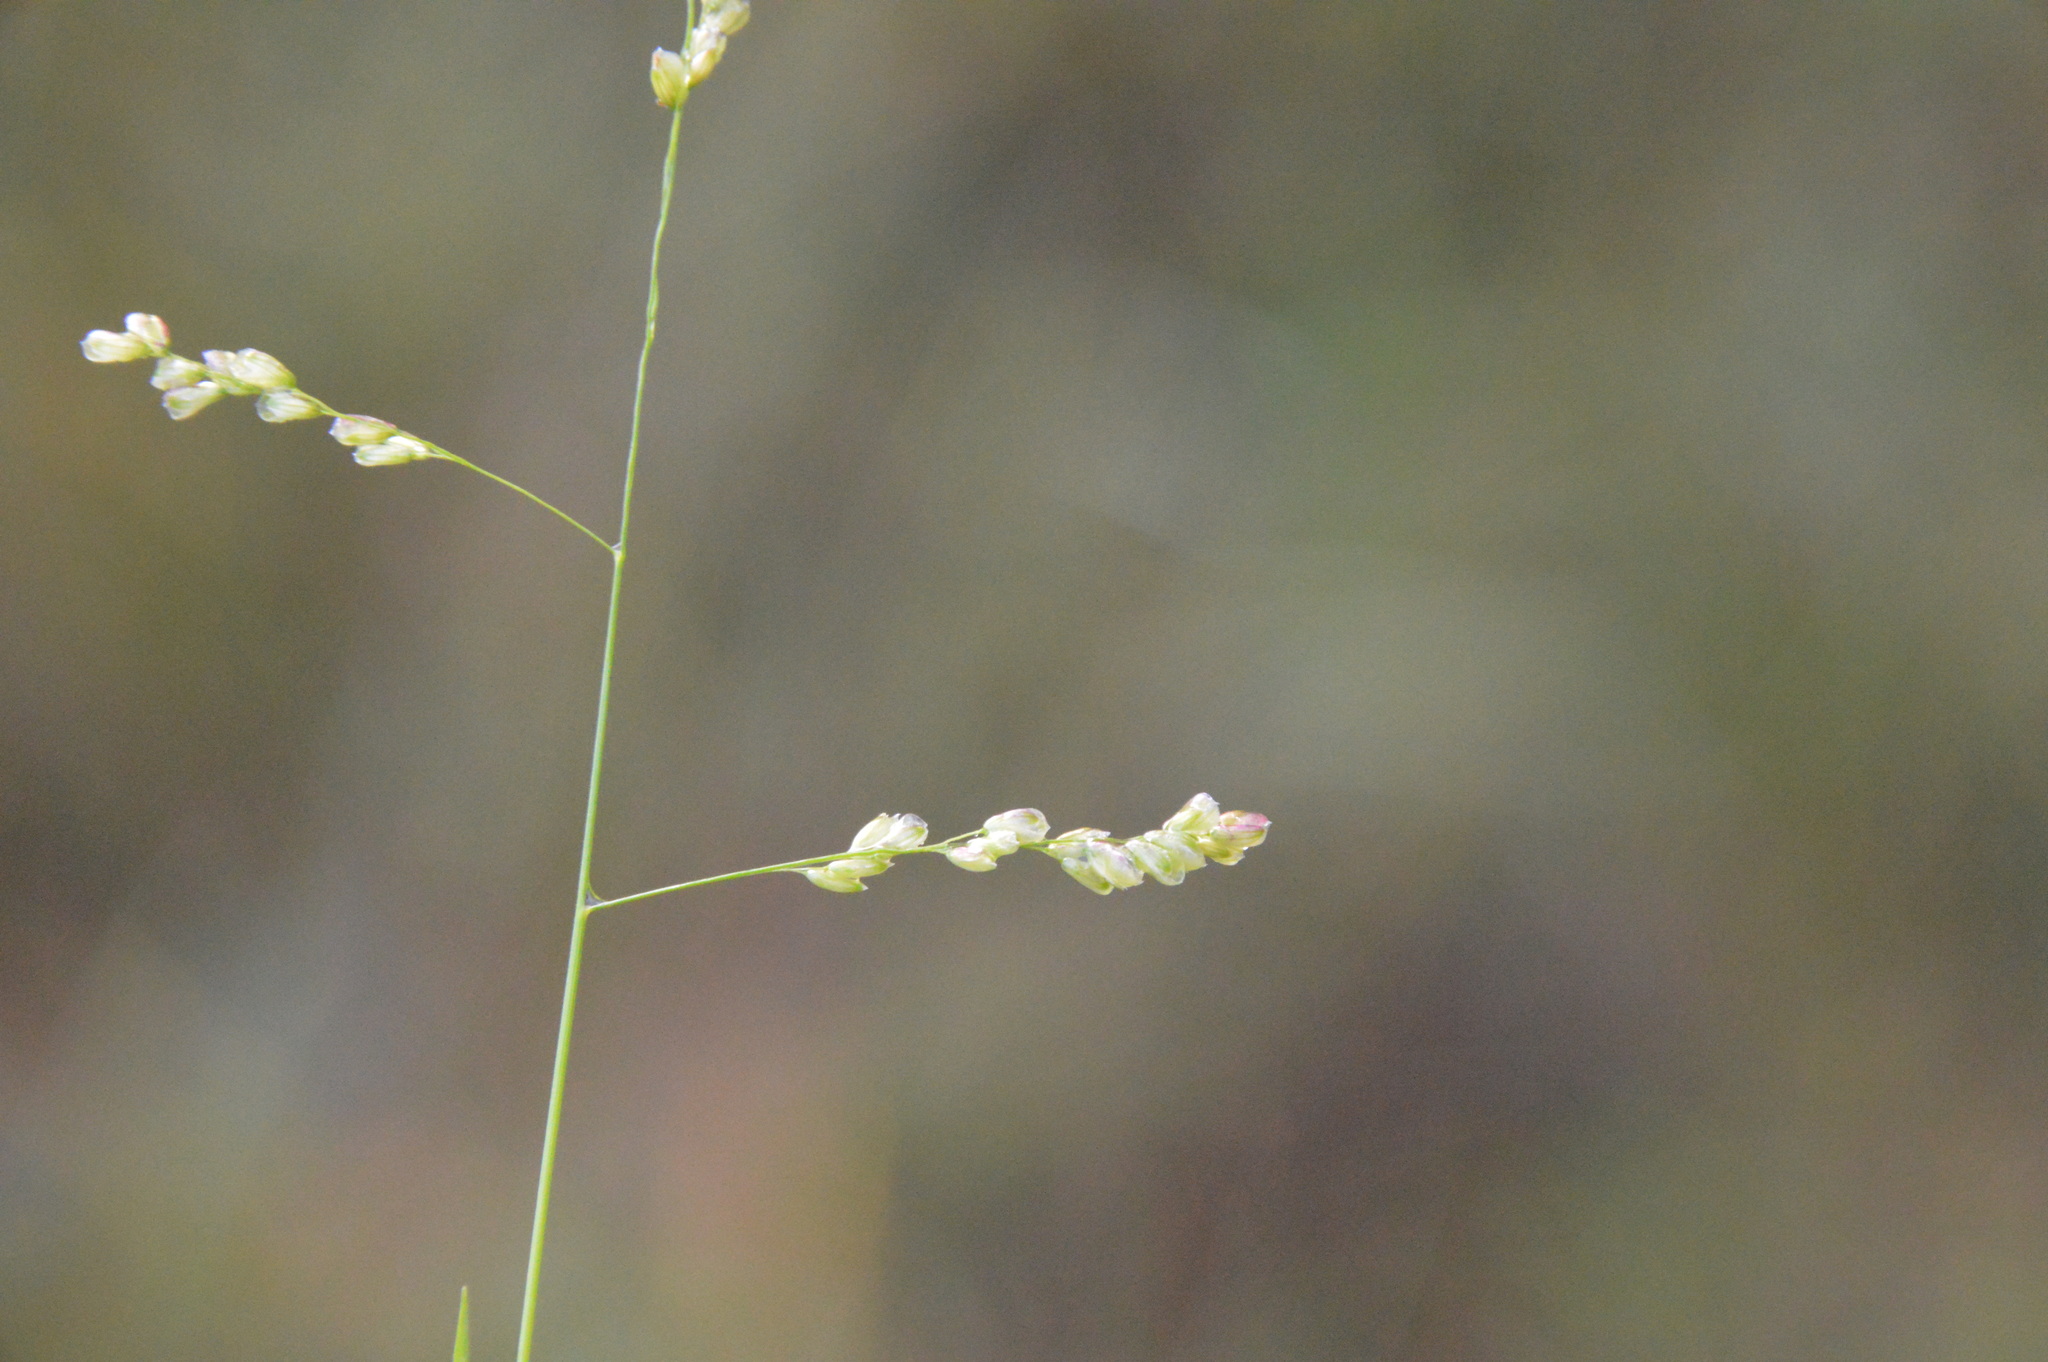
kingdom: Plantae
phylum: Tracheophyta
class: Liliopsida
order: Poales
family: Poaceae
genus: Steinchisma
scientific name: Steinchisma hians
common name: Gaping panic grass
